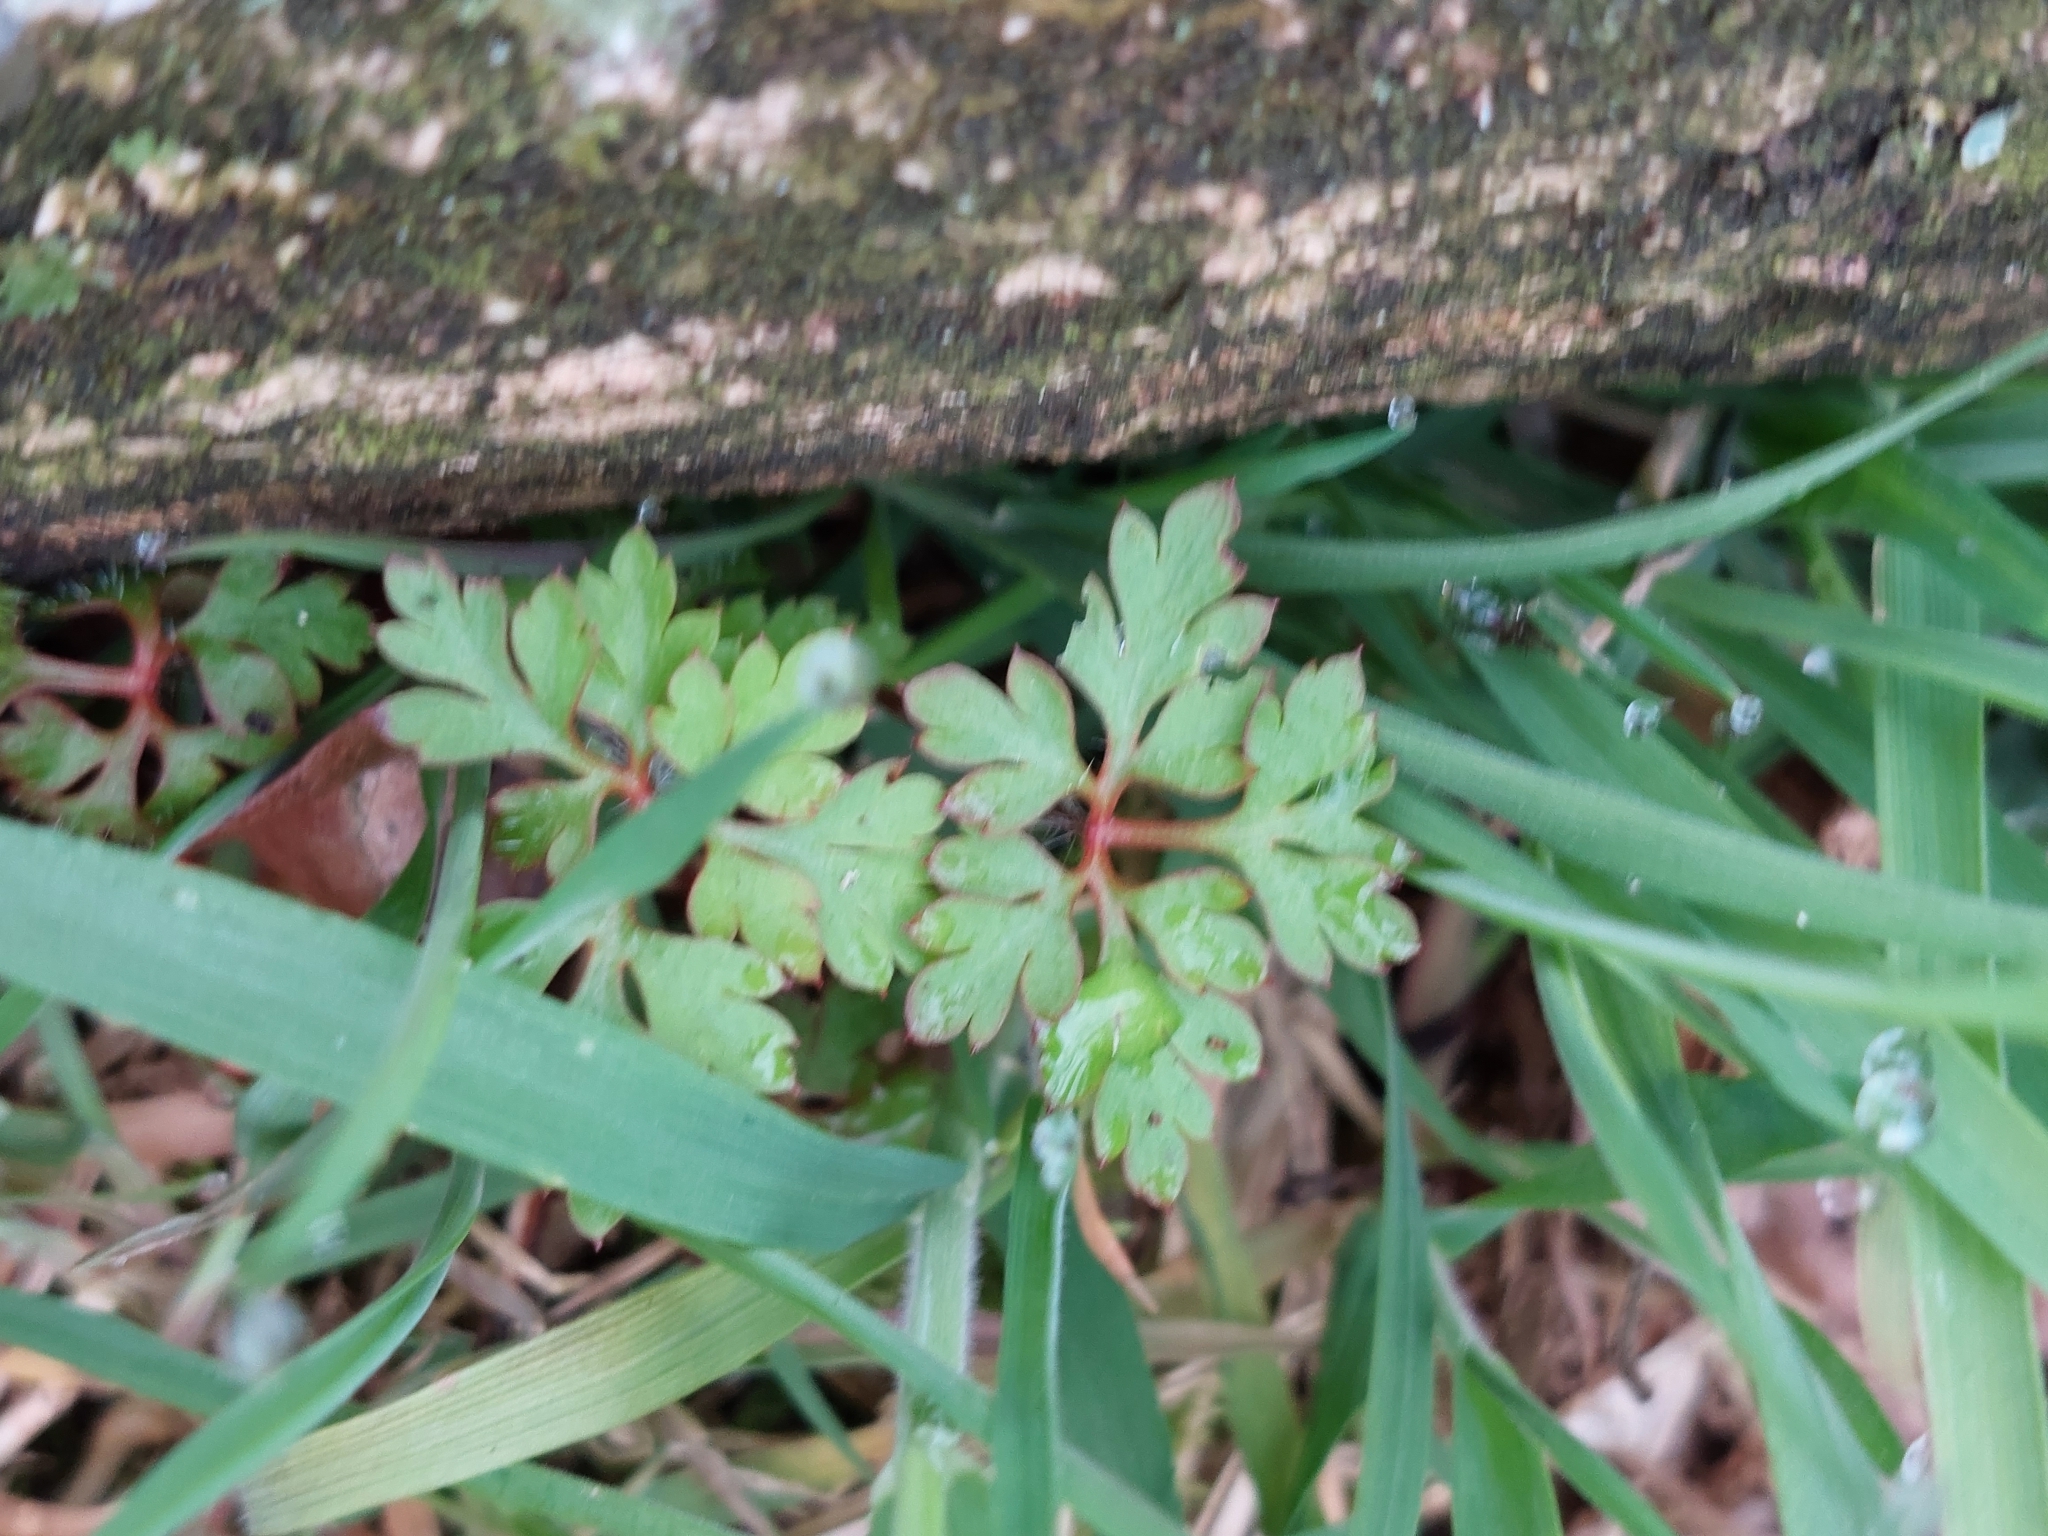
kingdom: Plantae
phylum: Tracheophyta
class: Magnoliopsida
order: Geraniales
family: Geraniaceae
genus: Geranium
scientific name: Geranium robertianum
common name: Herb-robert
